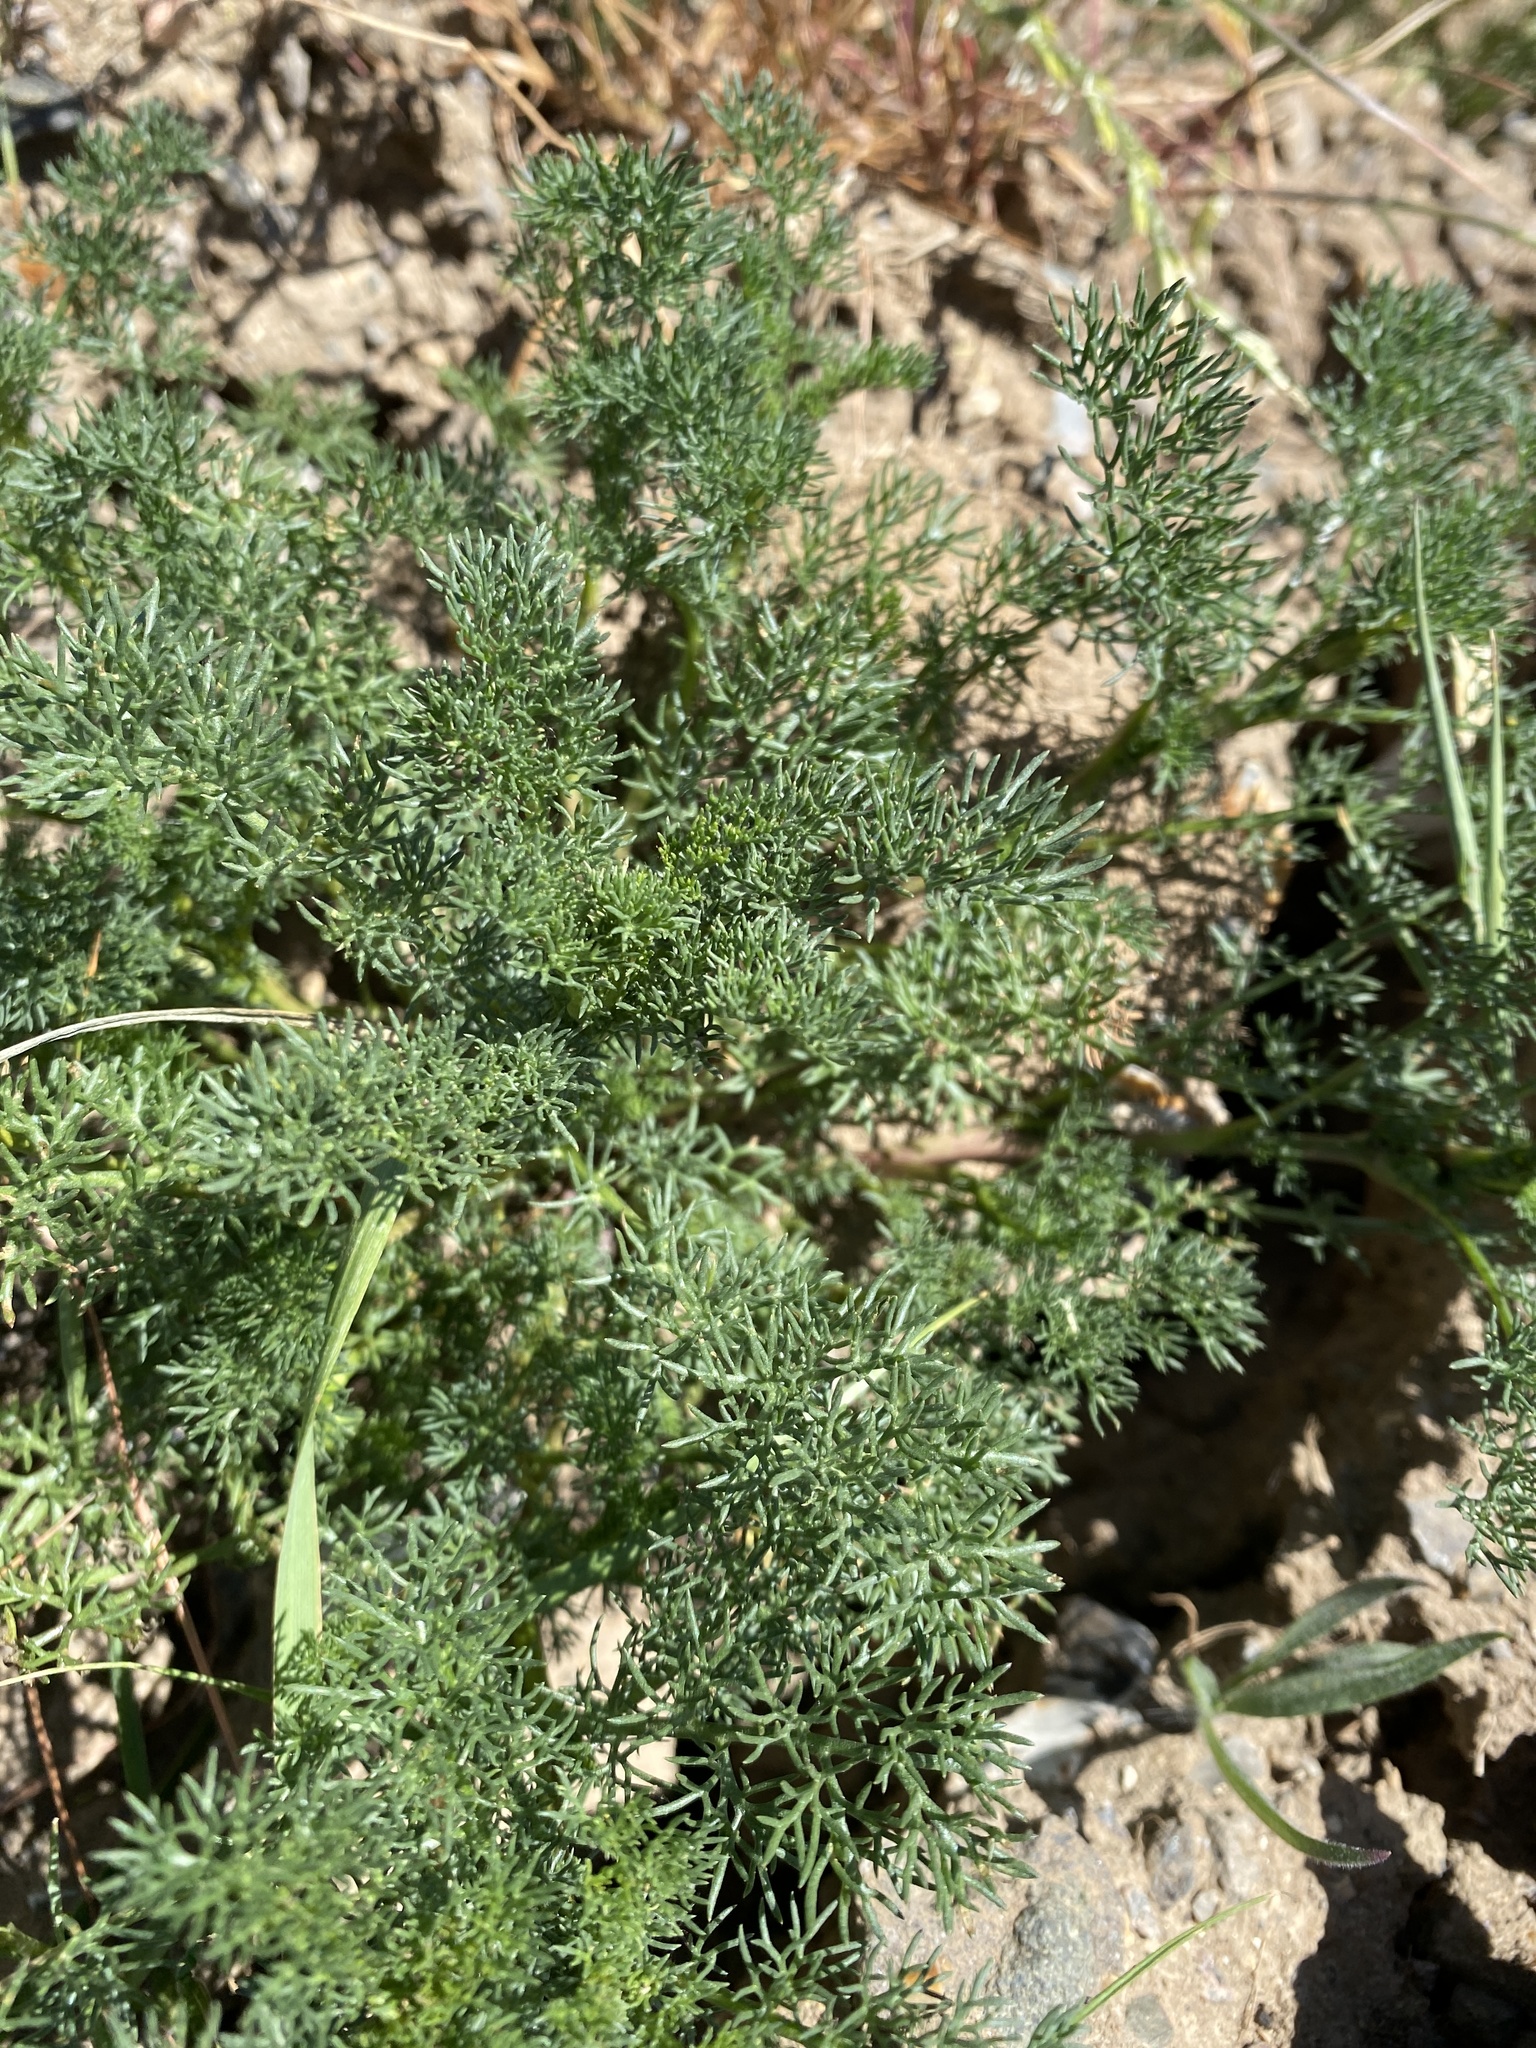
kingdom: Plantae
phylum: Tracheophyta
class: Magnoliopsida
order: Asterales
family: Asteraceae
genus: Tripleurospermum
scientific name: Tripleurospermum inodorum
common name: Scentless mayweed
